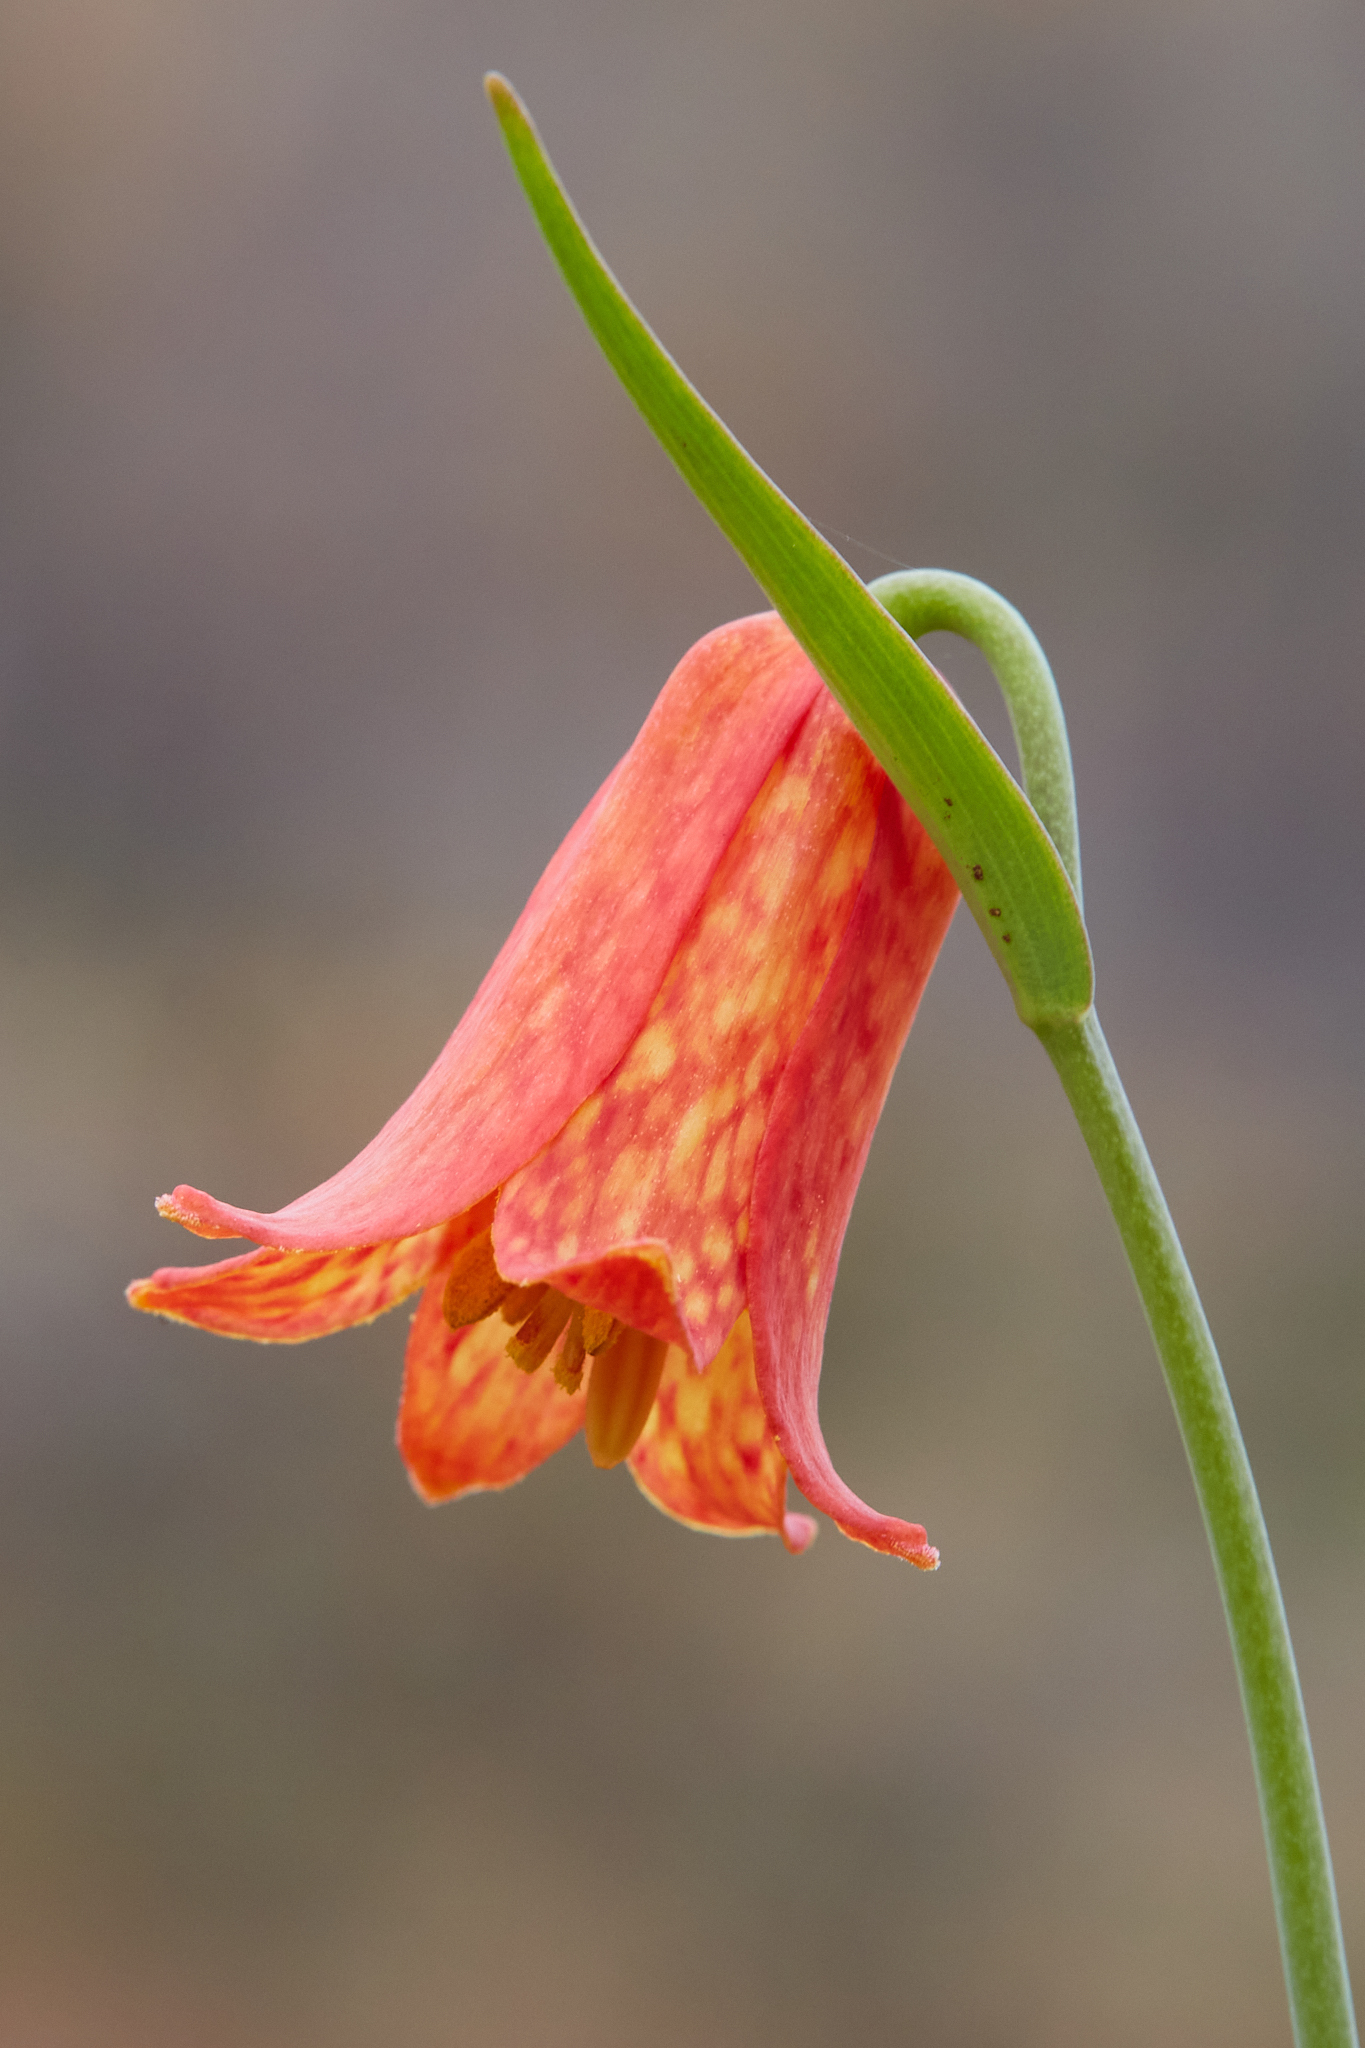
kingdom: Plantae
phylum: Tracheophyta
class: Liliopsida
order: Liliales
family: Liliaceae
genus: Fritillaria
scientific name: Fritillaria recurva
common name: Scarlet fritillary
